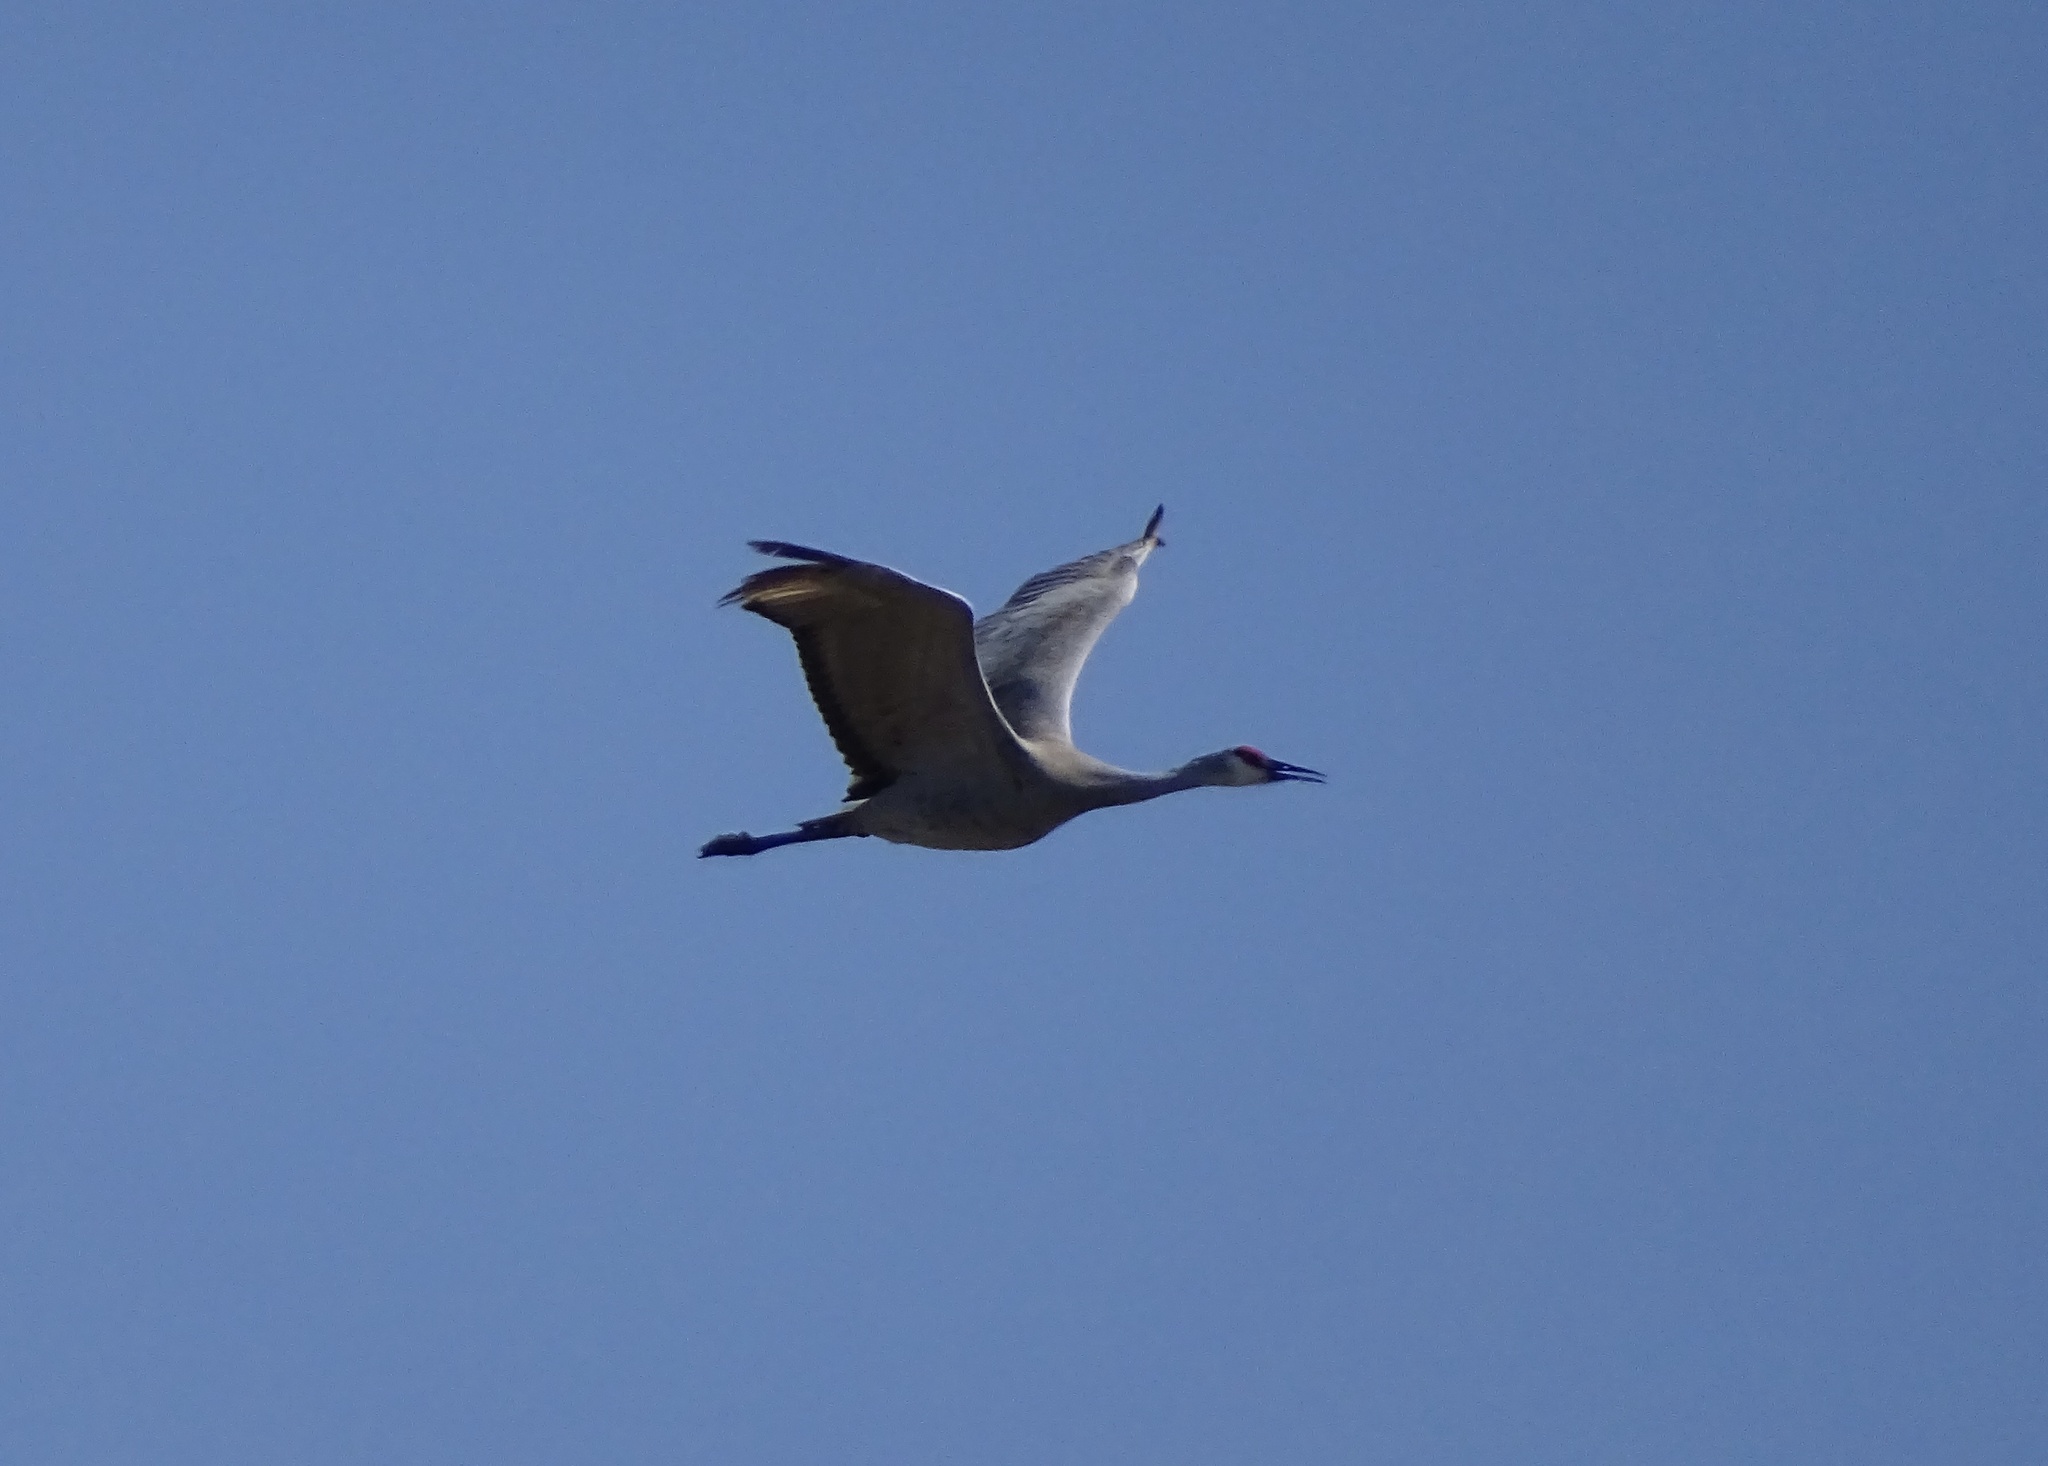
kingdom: Animalia
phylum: Chordata
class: Aves
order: Gruiformes
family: Gruidae
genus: Grus
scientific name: Grus canadensis
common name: Sandhill crane
